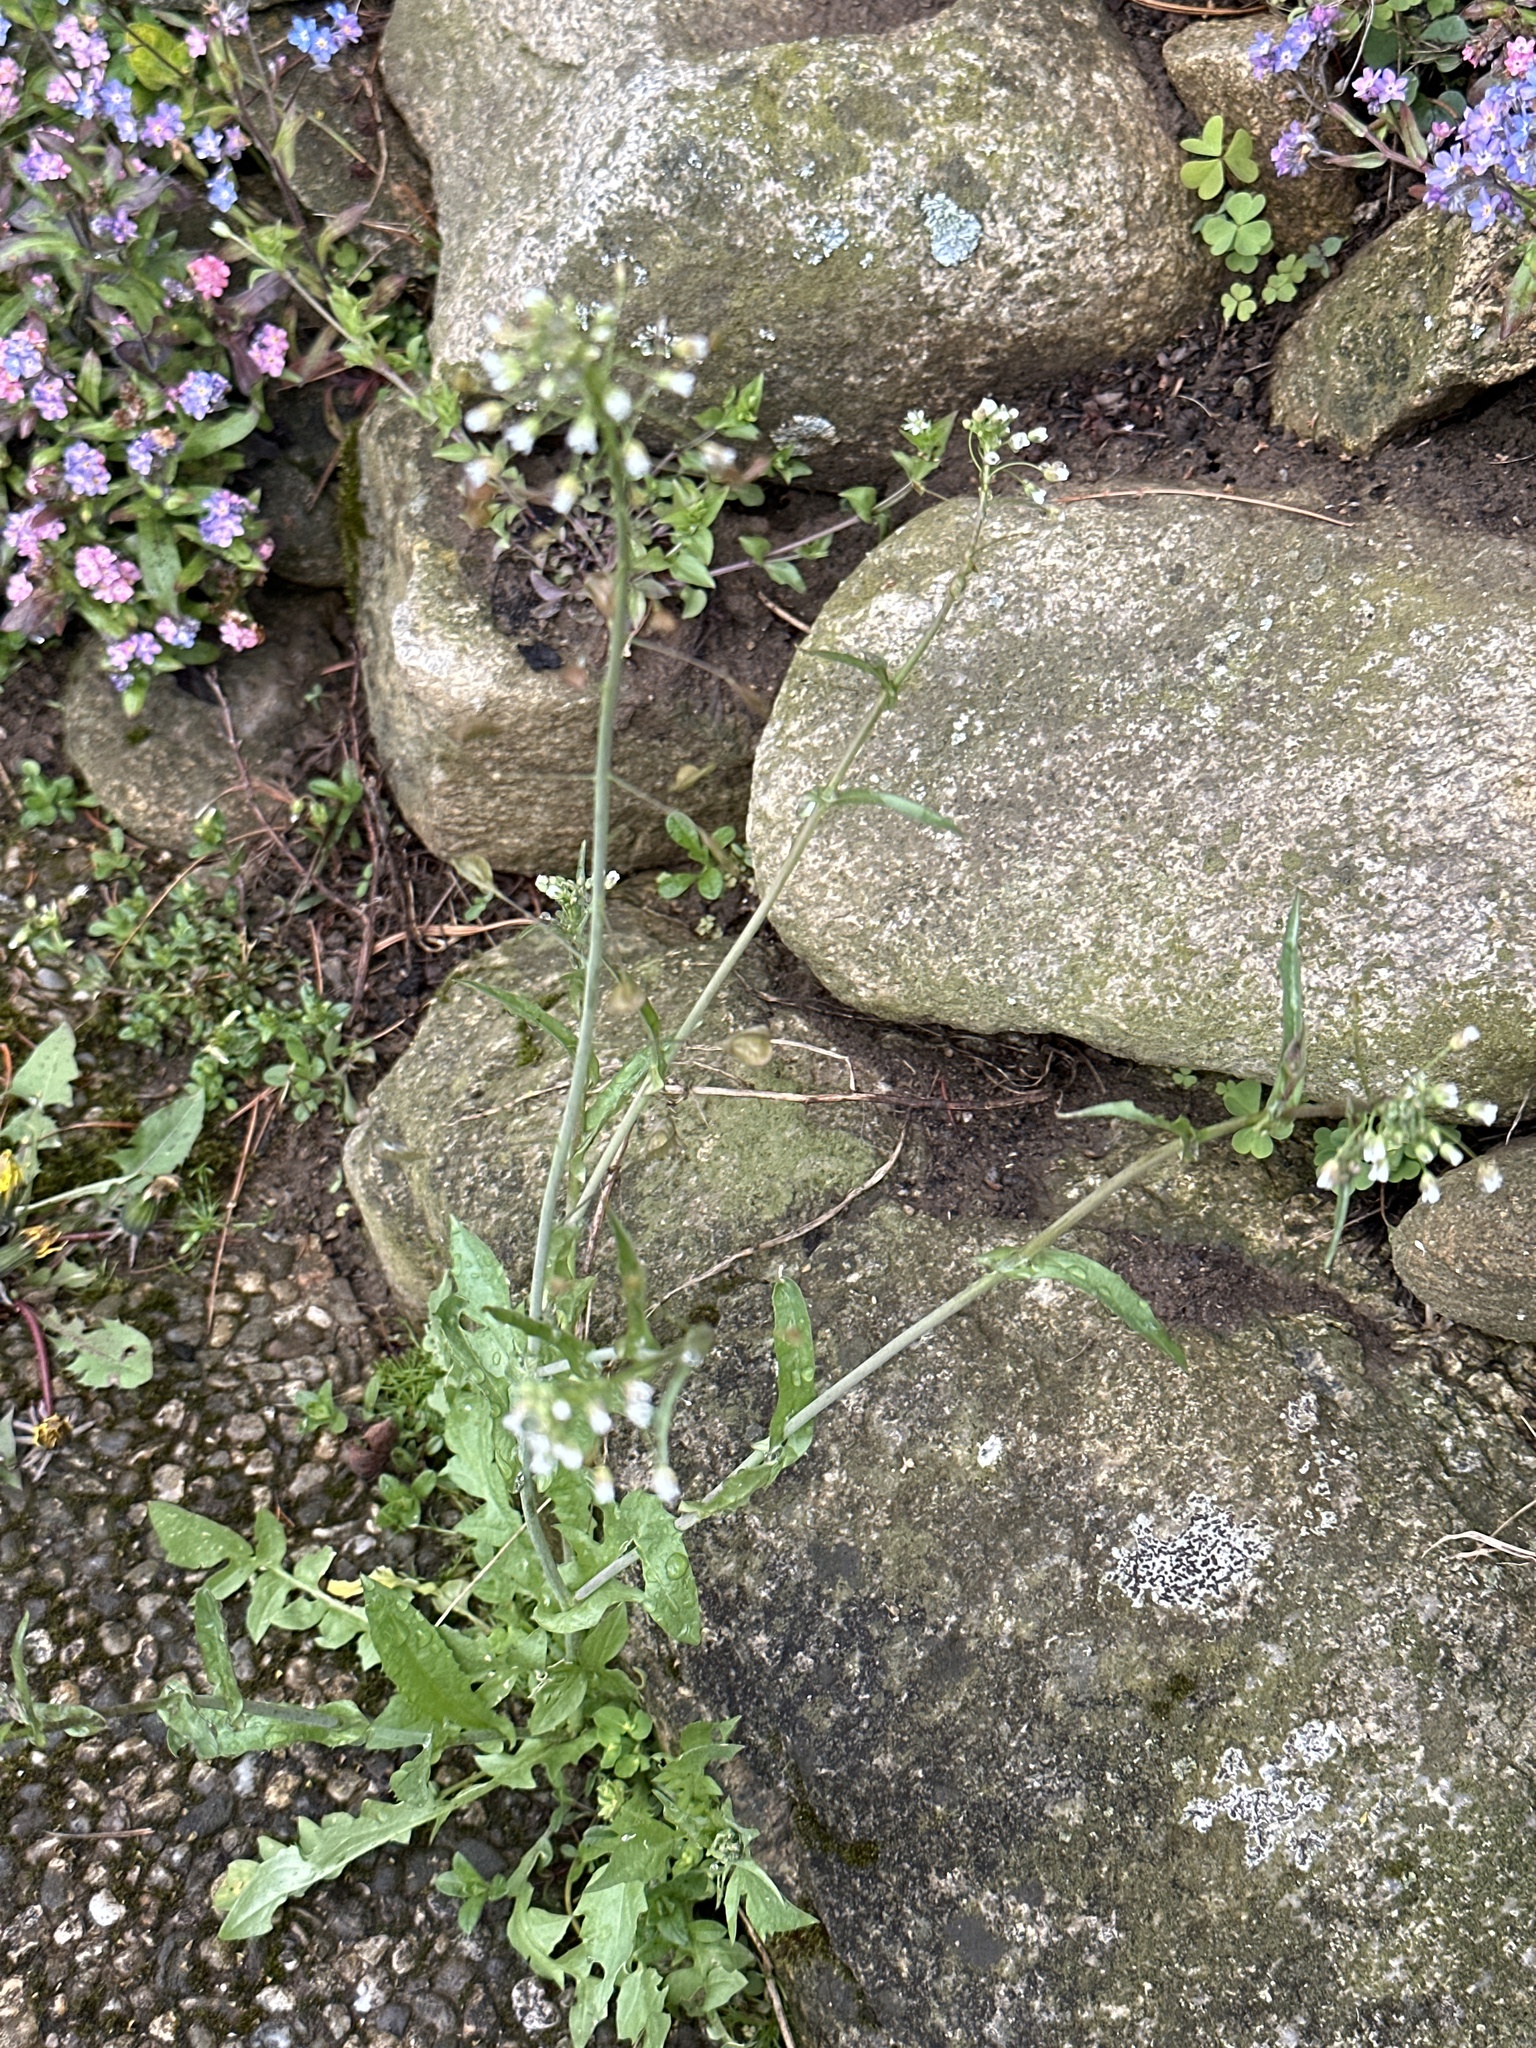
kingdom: Plantae
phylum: Tracheophyta
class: Magnoliopsida
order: Brassicales
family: Brassicaceae
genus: Capsella
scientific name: Capsella bursa-pastoris
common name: Shepherd's purse
